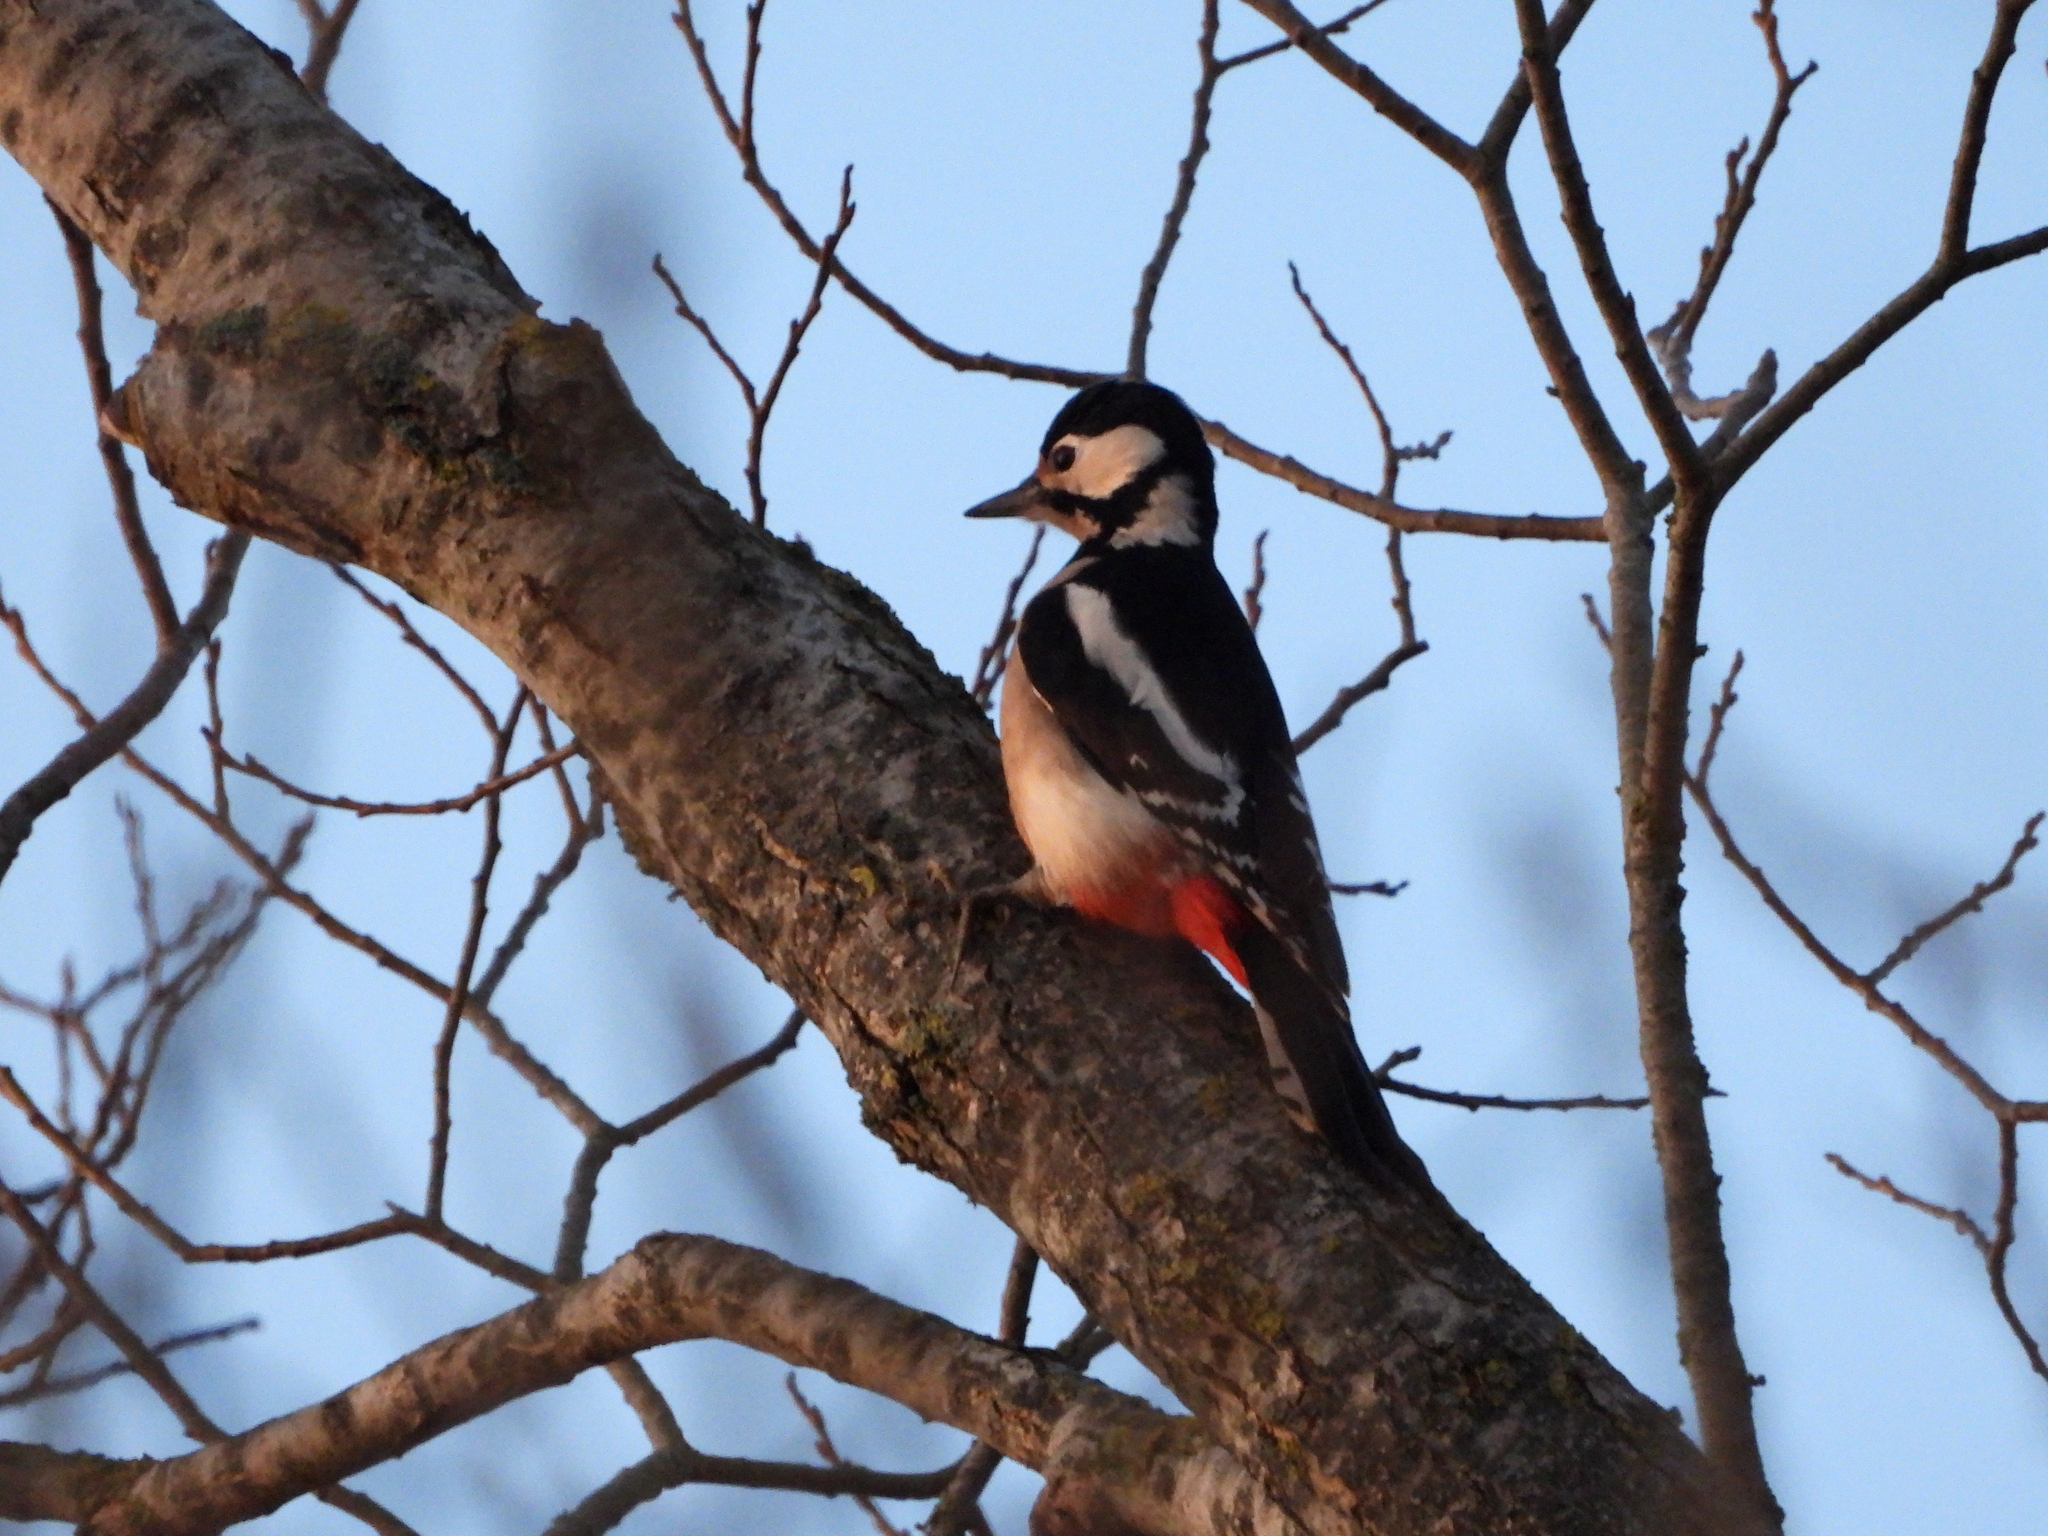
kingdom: Animalia
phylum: Chordata
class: Aves
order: Piciformes
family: Picidae
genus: Dendrocopos
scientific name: Dendrocopos major
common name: Great spotted woodpecker
